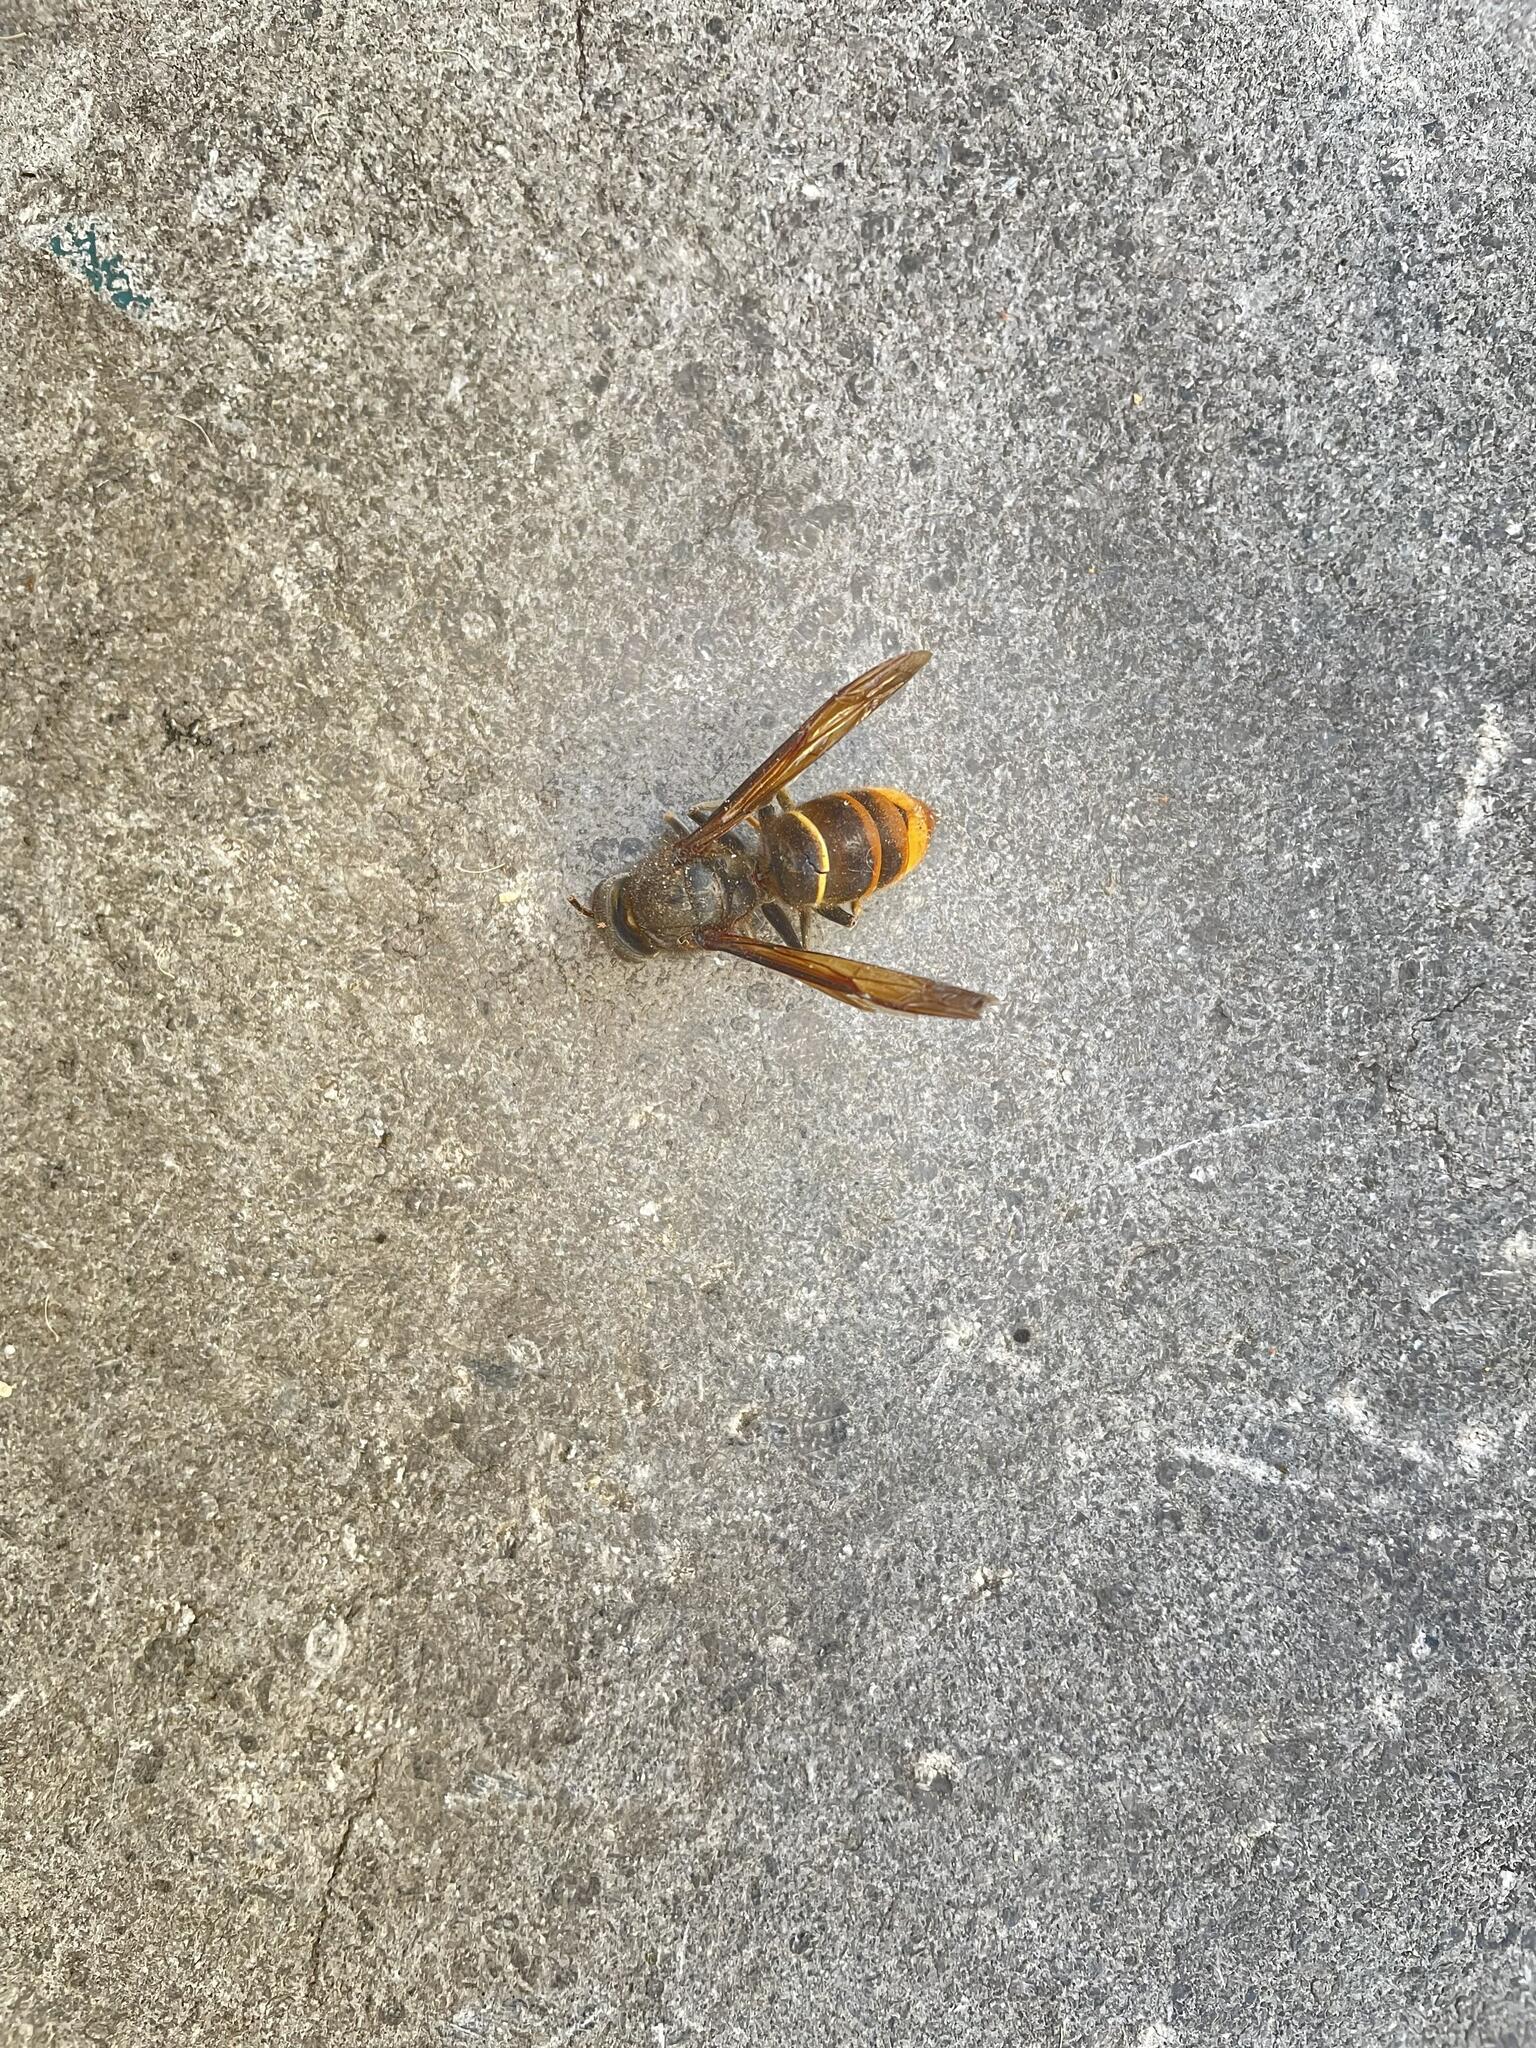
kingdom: Animalia
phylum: Arthropoda
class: Insecta
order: Hymenoptera
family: Vespidae
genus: Vespa
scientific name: Vespa velutina
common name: Asian hornet
